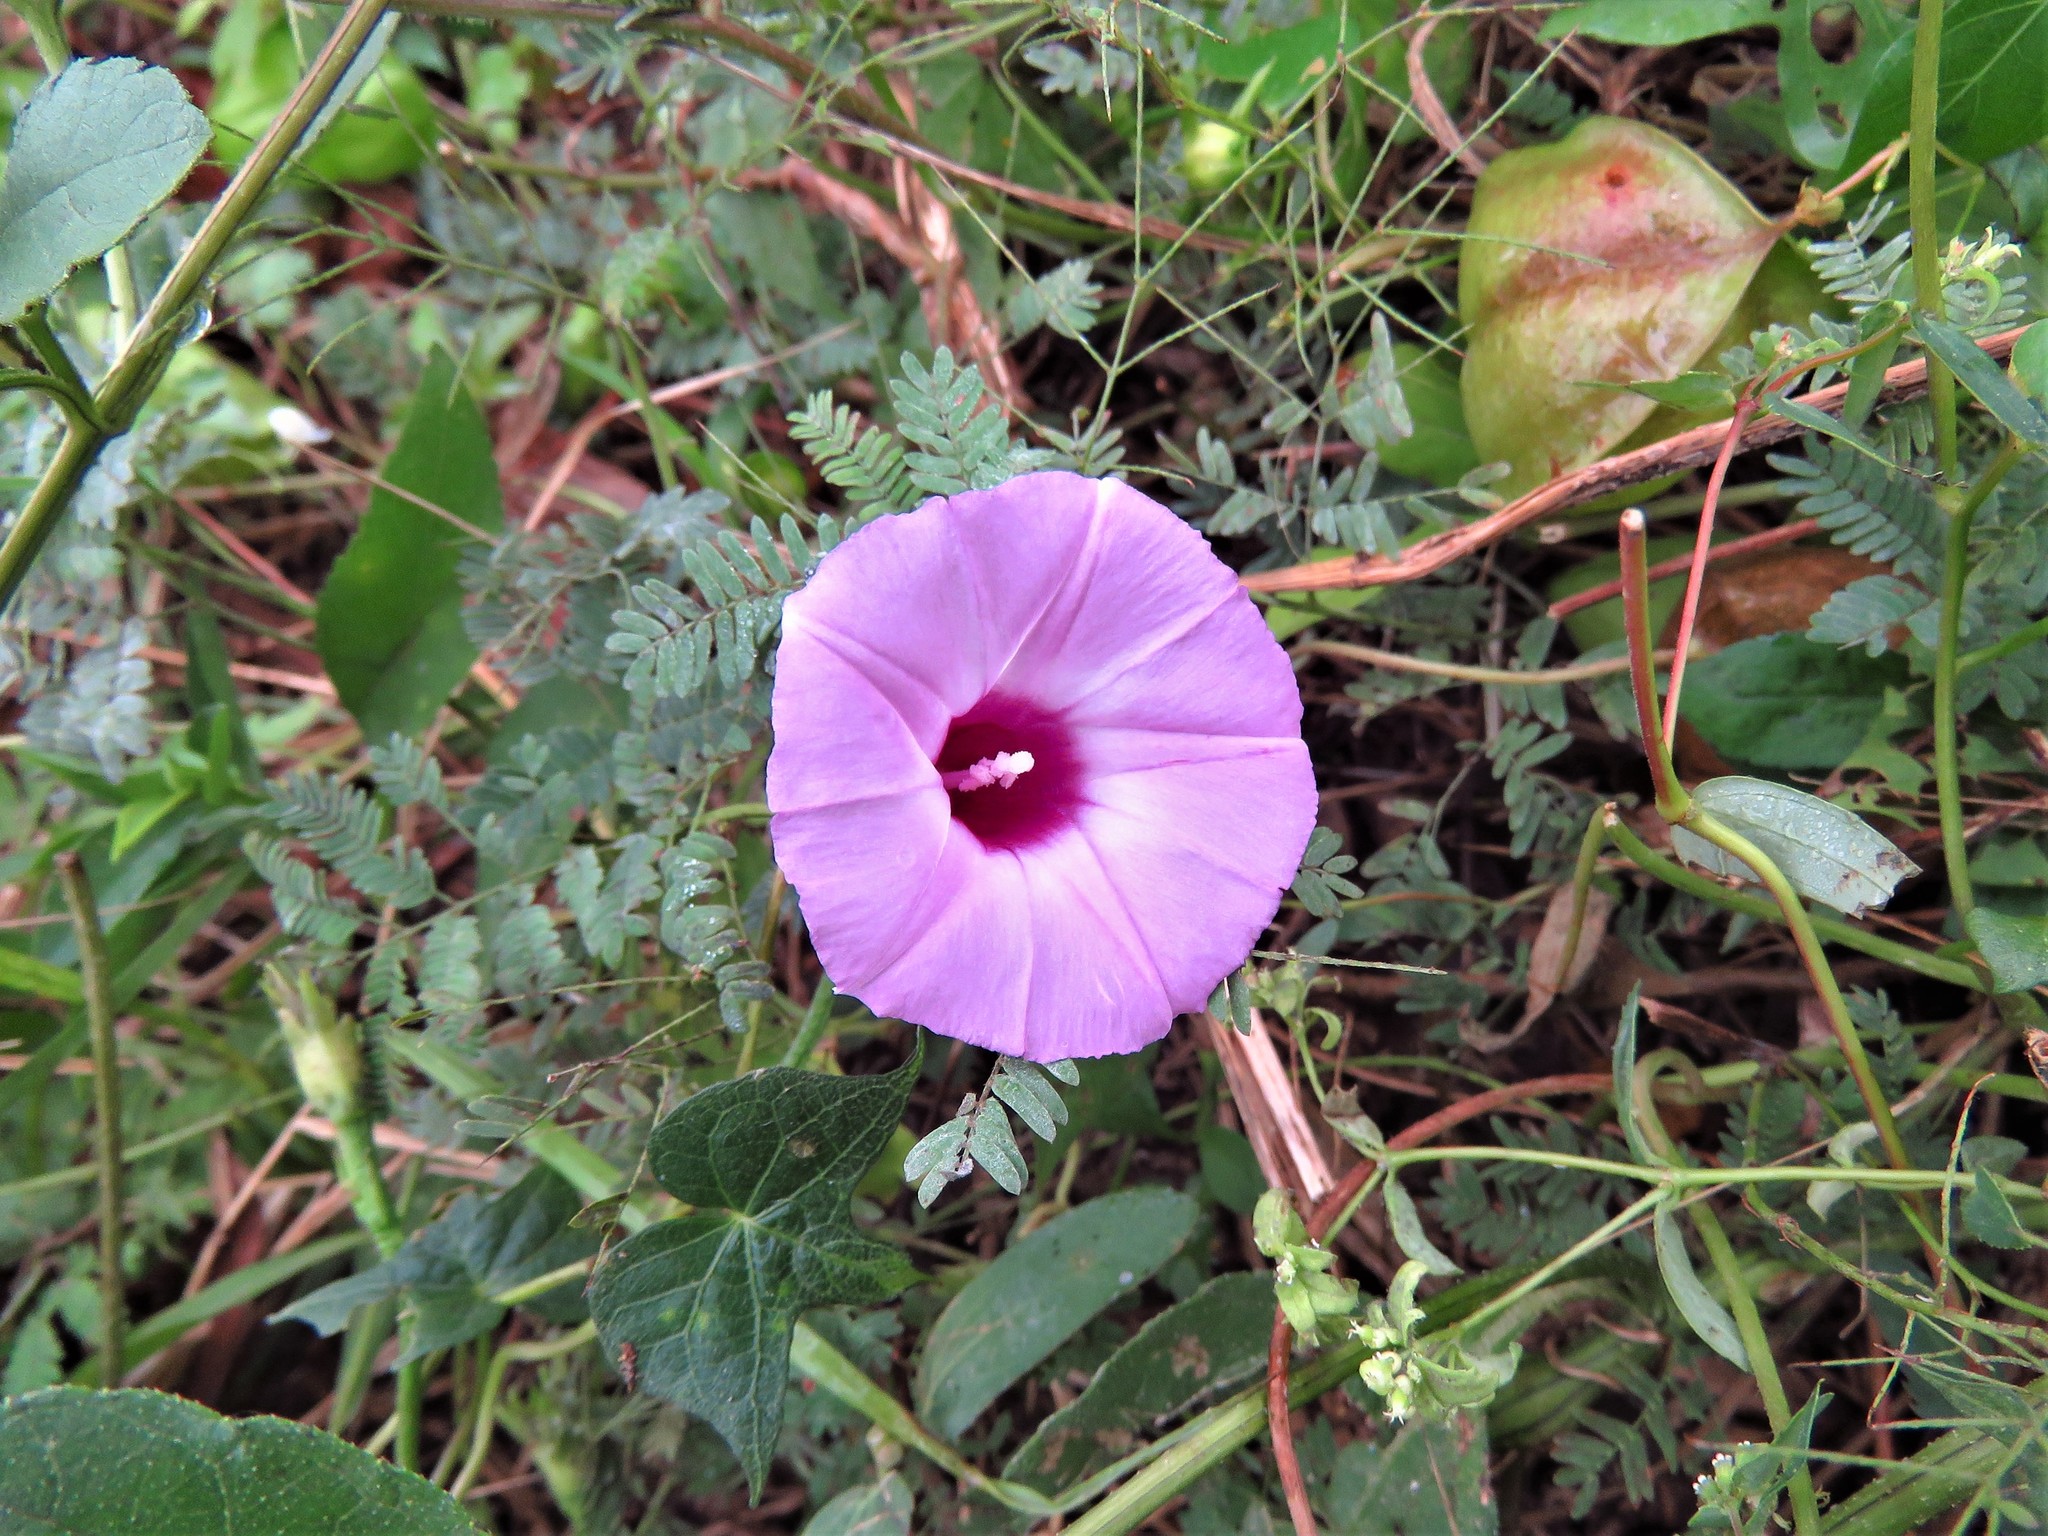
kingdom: Plantae
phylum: Tracheophyta
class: Magnoliopsida
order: Solanales
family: Convolvulaceae
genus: Ipomoea
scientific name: Ipomoea cordatotriloba
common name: Cotton morning glory
